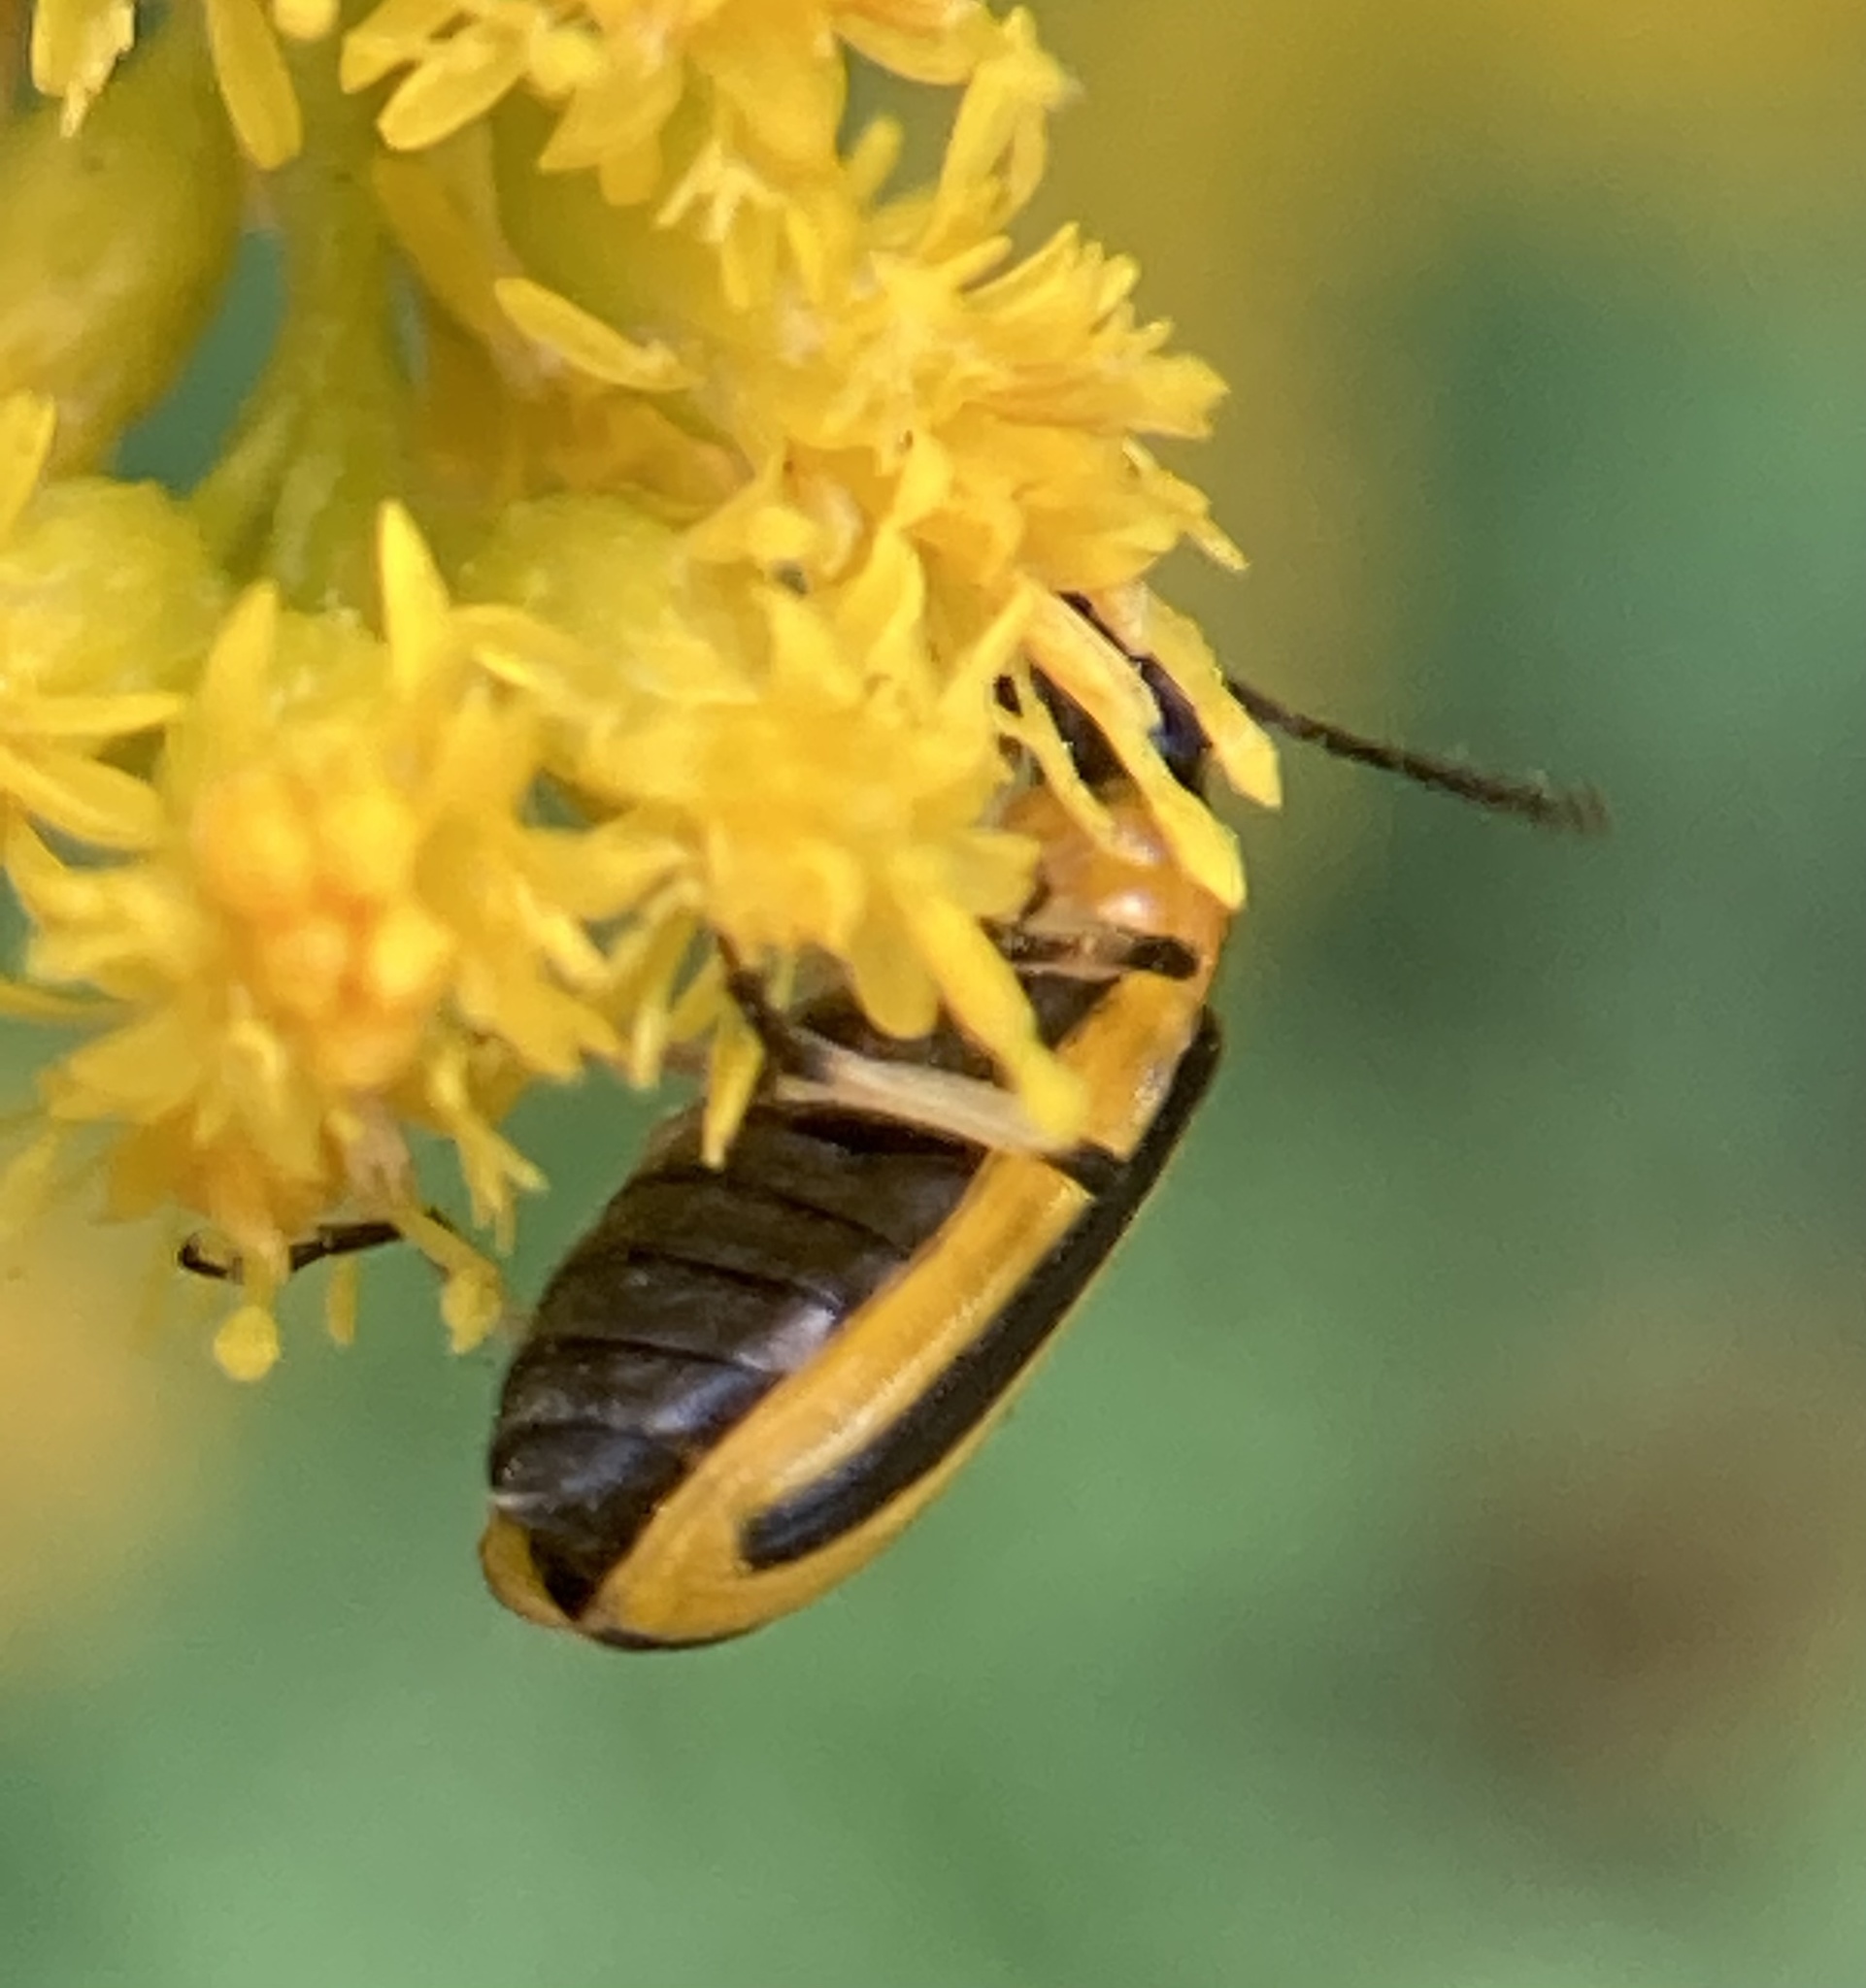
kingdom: Animalia
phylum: Arthropoda
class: Insecta
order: Coleoptera
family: Chrysomelidae
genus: Acalymma
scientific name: Acalymma vittatum
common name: Striped cucumber beetle
